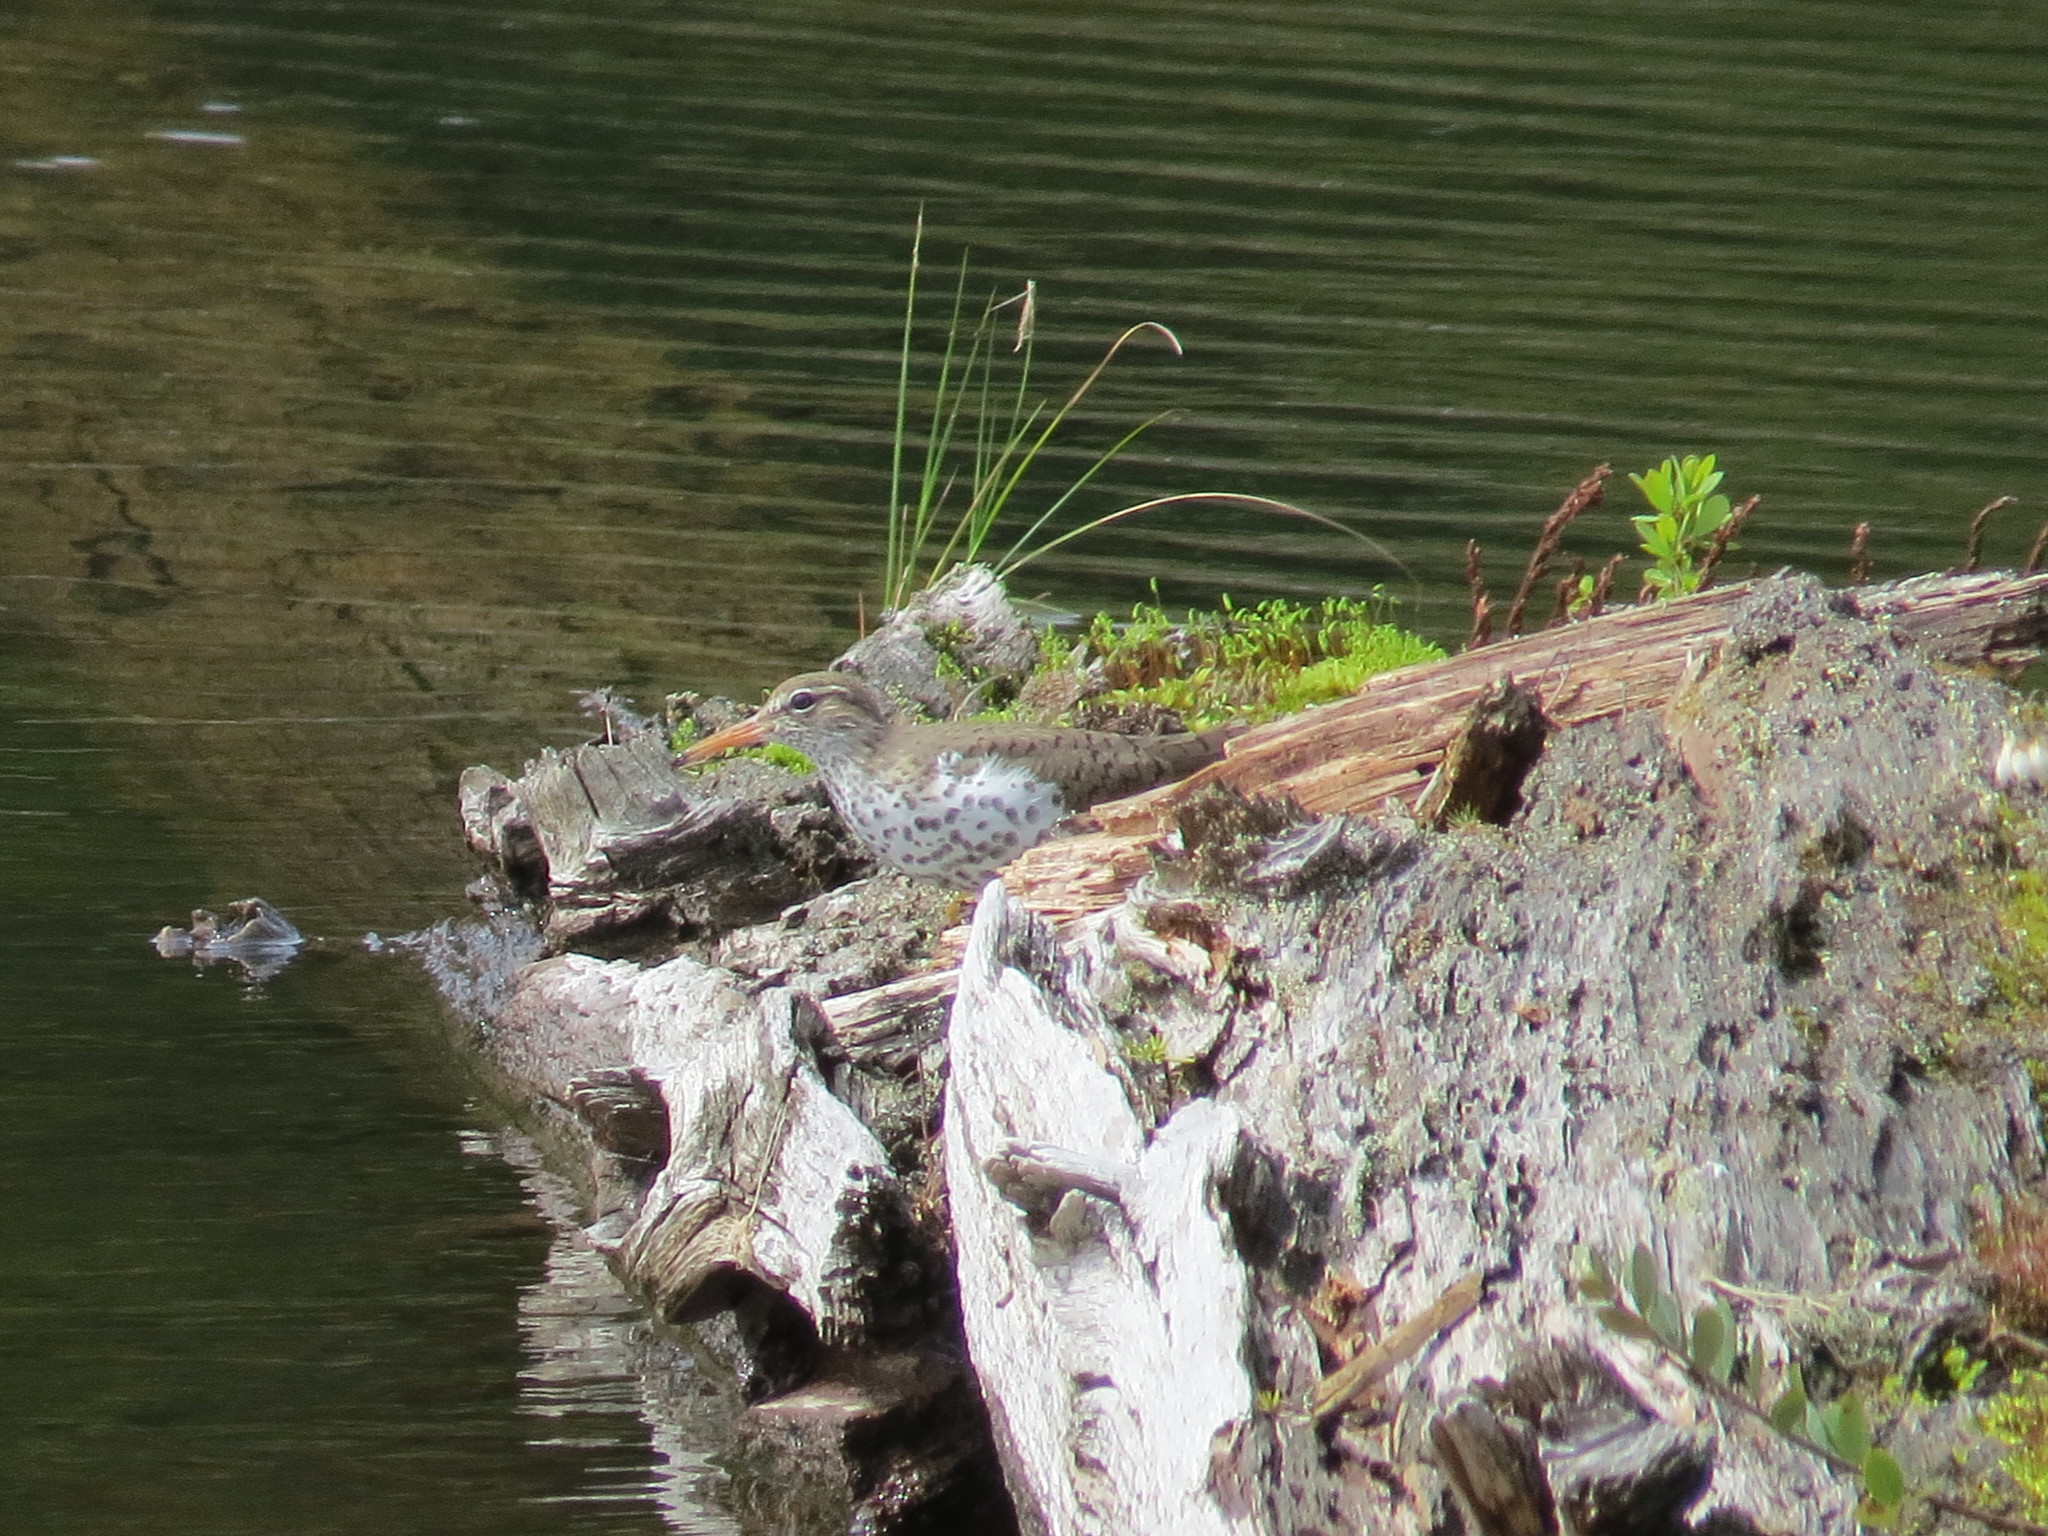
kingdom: Animalia
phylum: Chordata
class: Aves
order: Charadriiformes
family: Scolopacidae
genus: Actitis
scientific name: Actitis macularius
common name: Spotted sandpiper
